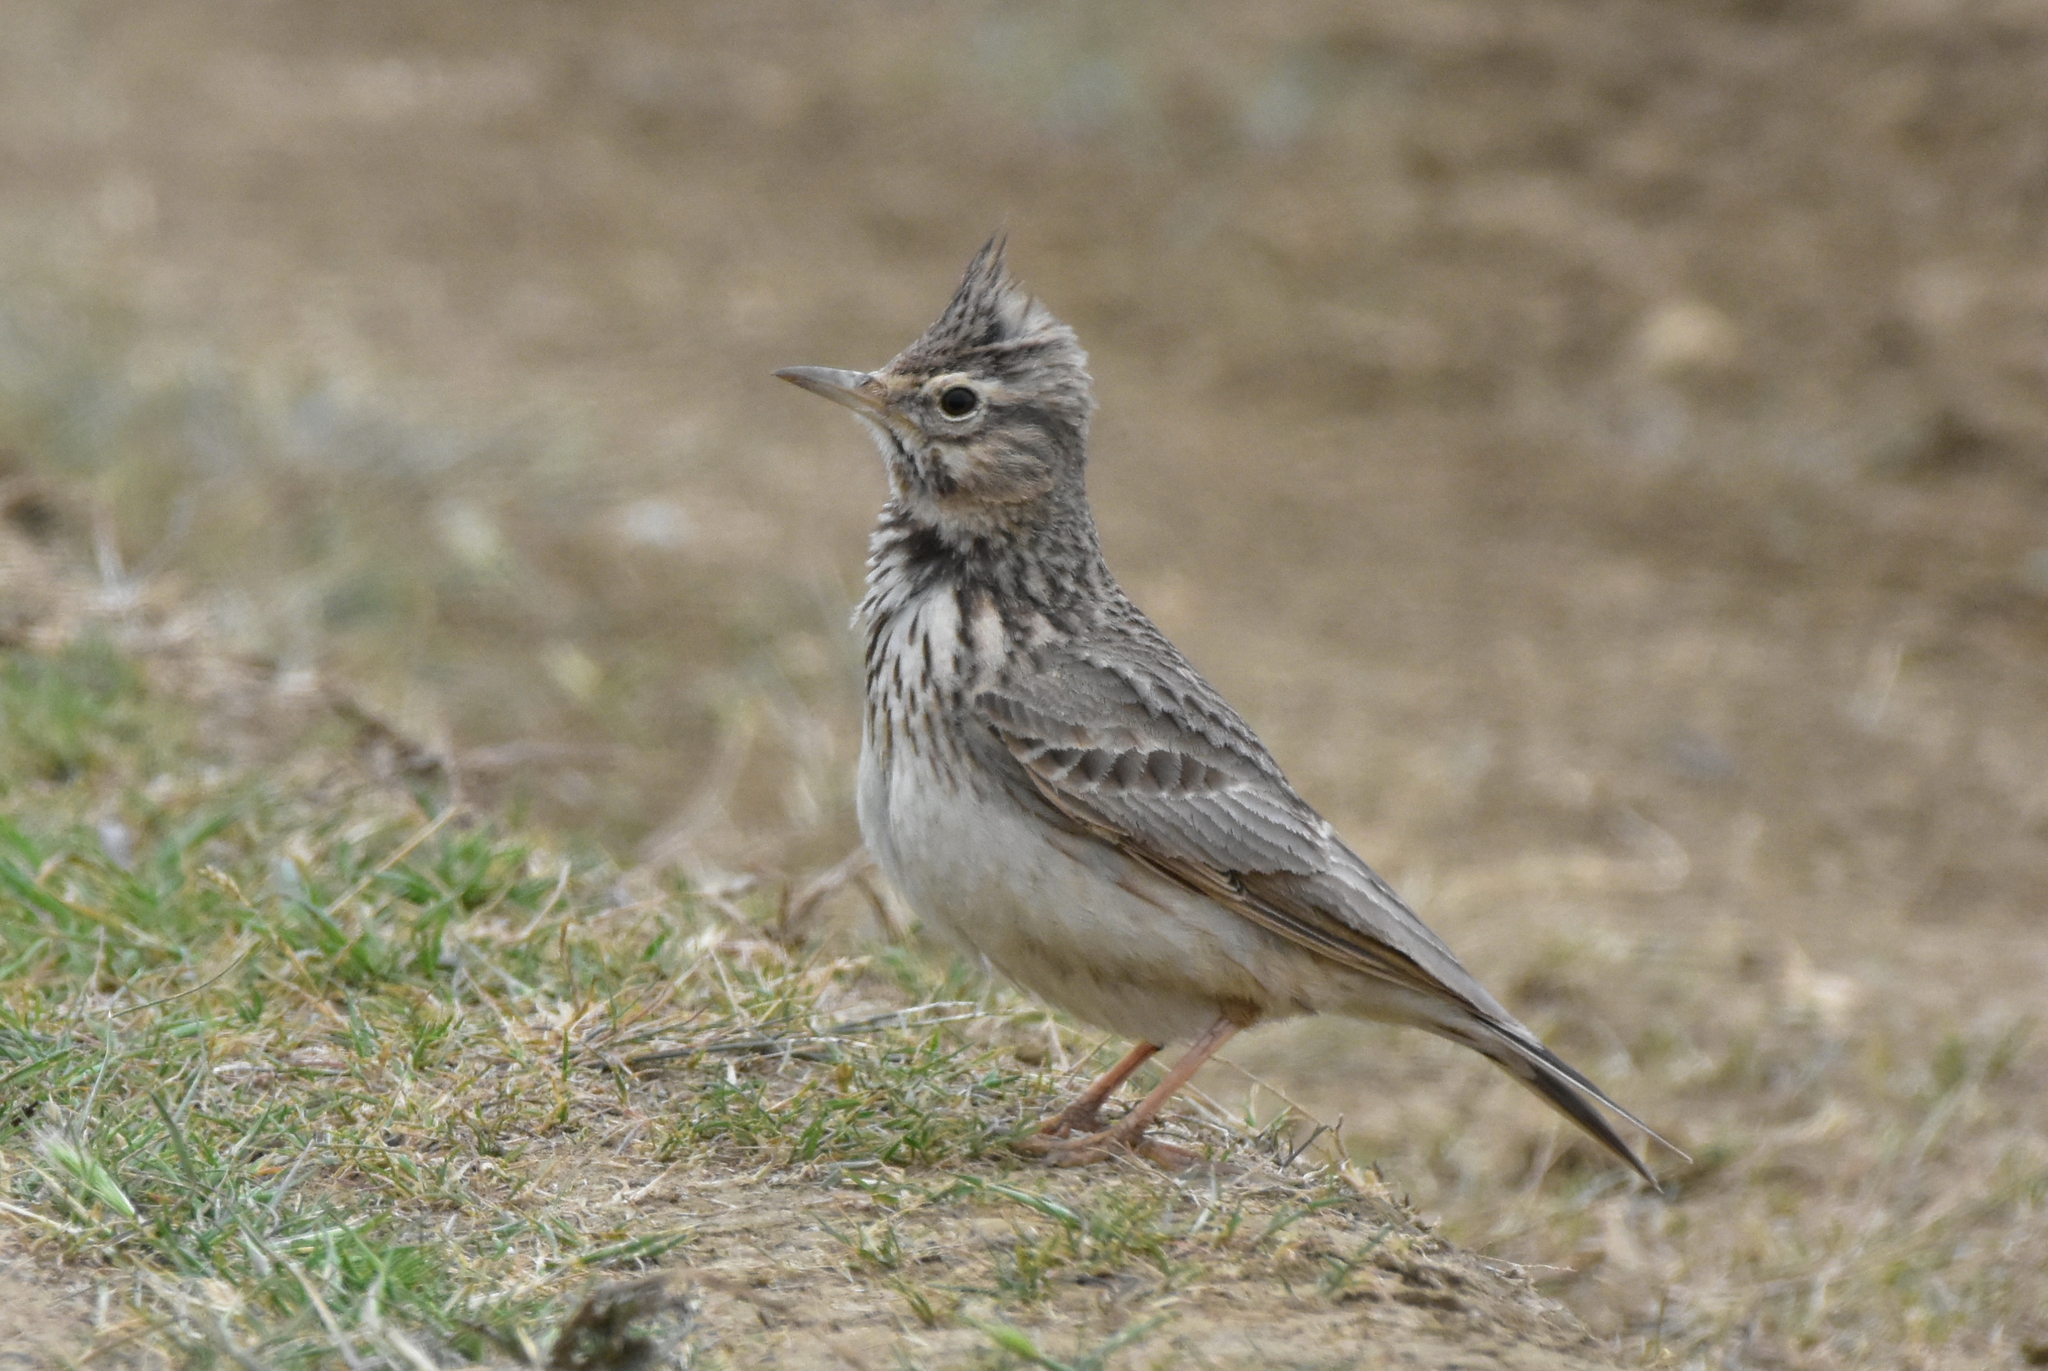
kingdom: Animalia
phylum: Chordata
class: Aves
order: Passeriformes
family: Alaudidae
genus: Galerida
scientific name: Galerida cristata
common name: Crested lark
